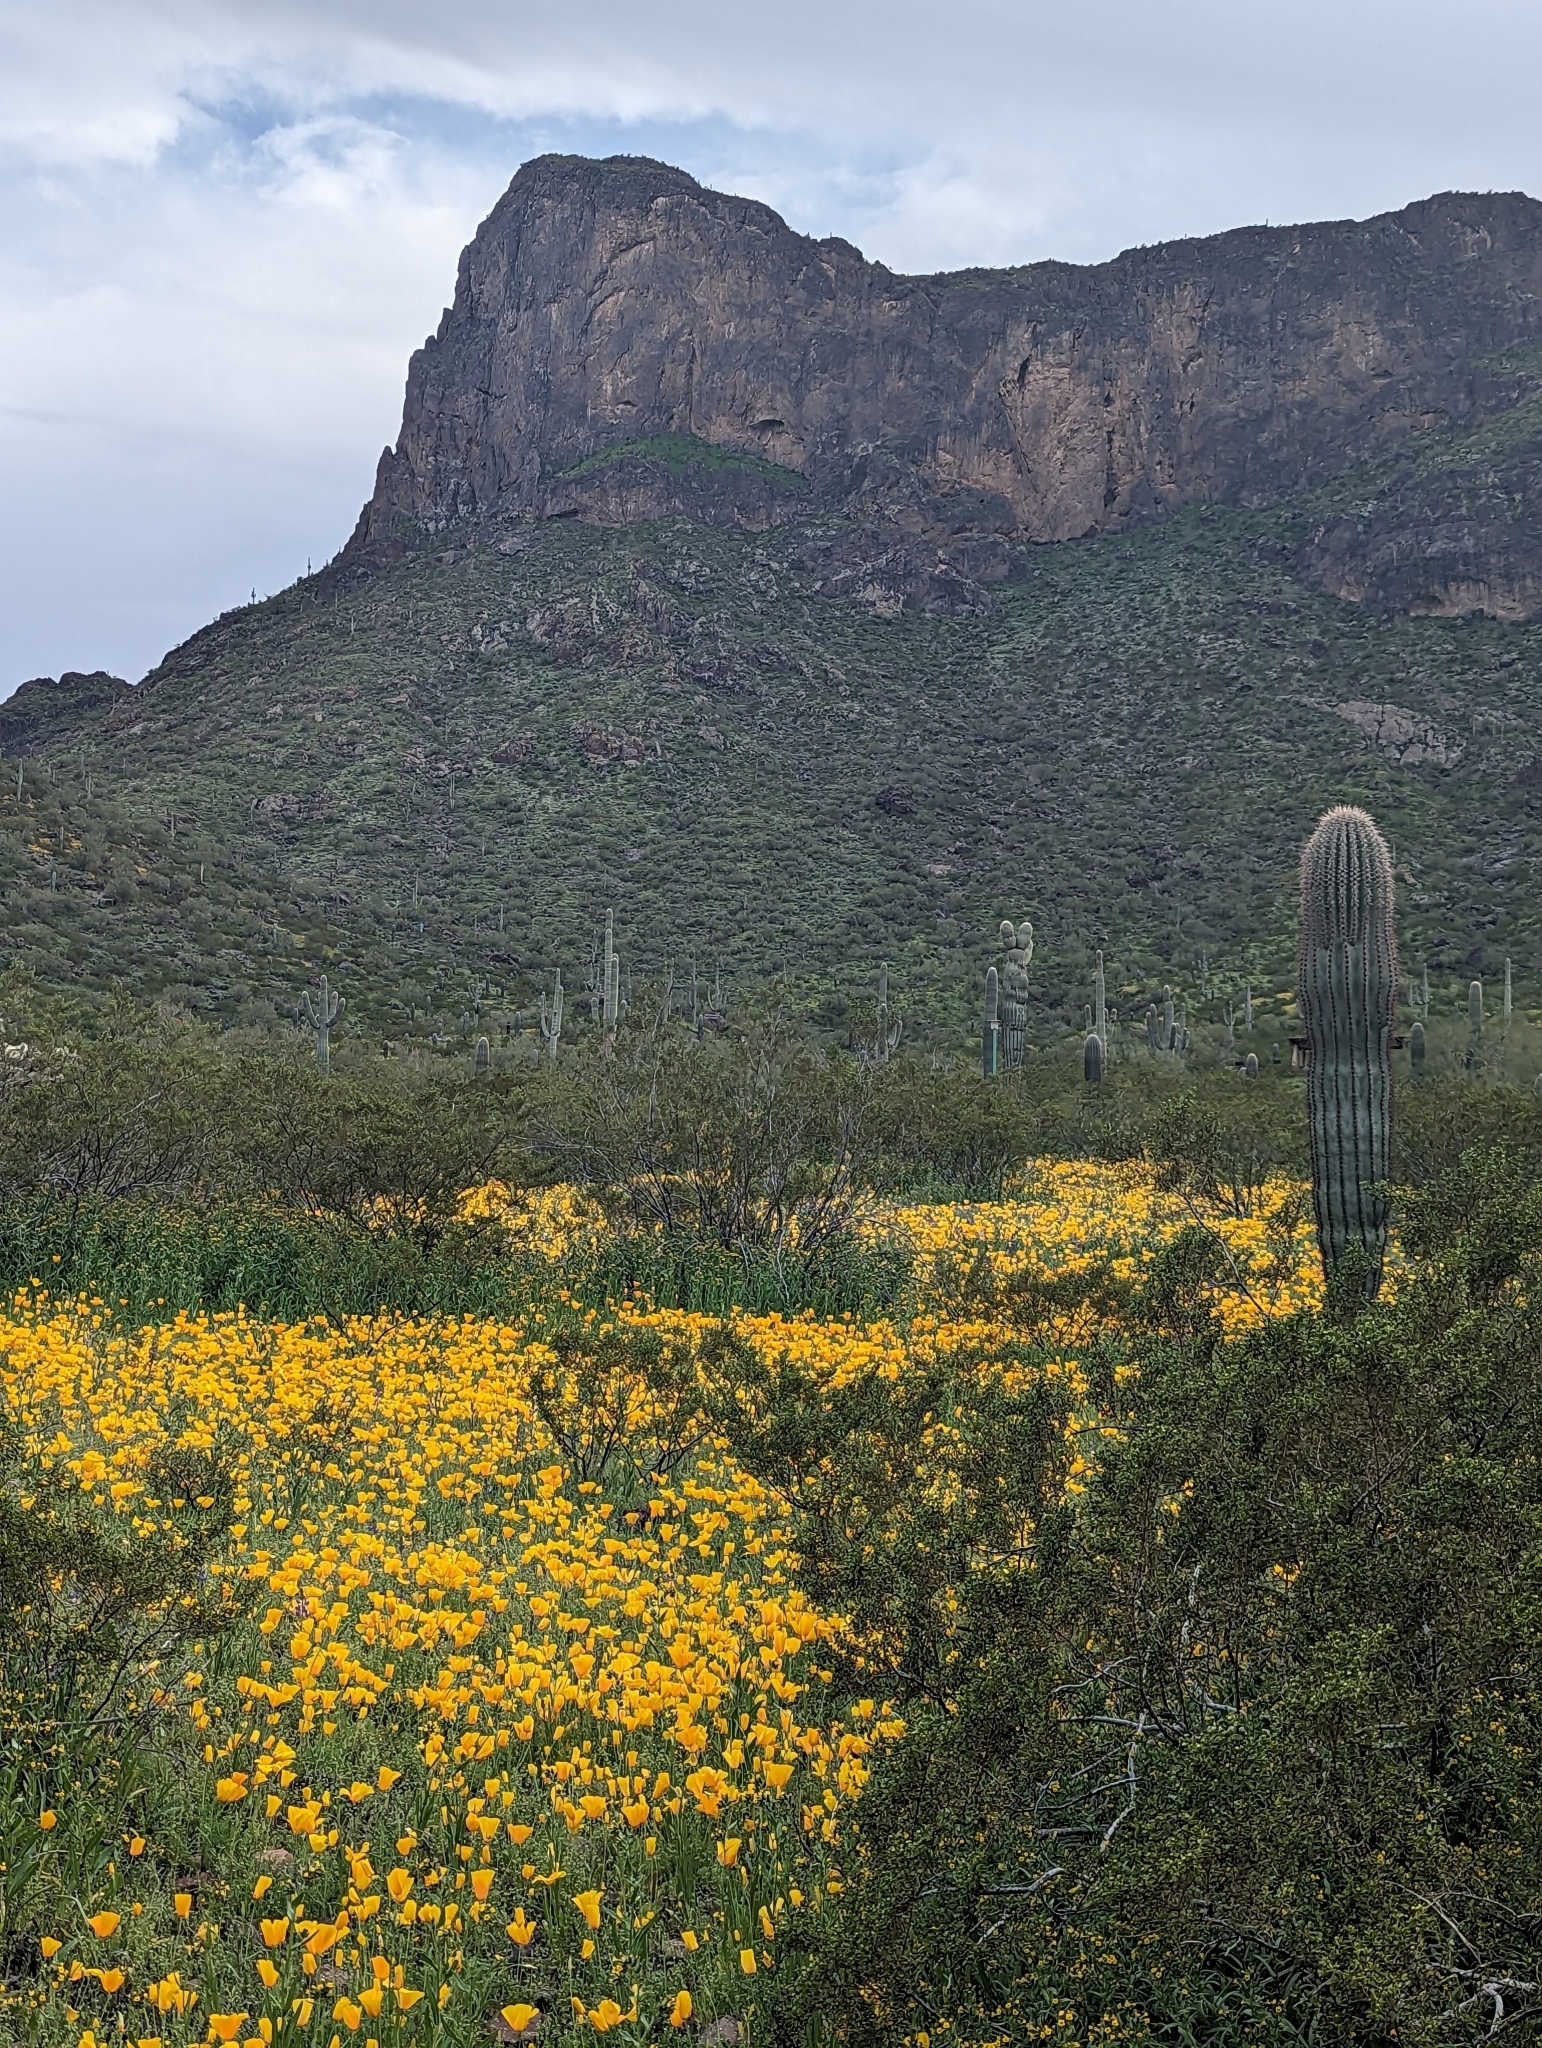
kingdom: Plantae
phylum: Tracheophyta
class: Magnoliopsida
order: Caryophyllales
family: Cactaceae
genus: Carnegiea
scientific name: Carnegiea gigantea
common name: Saguaro
